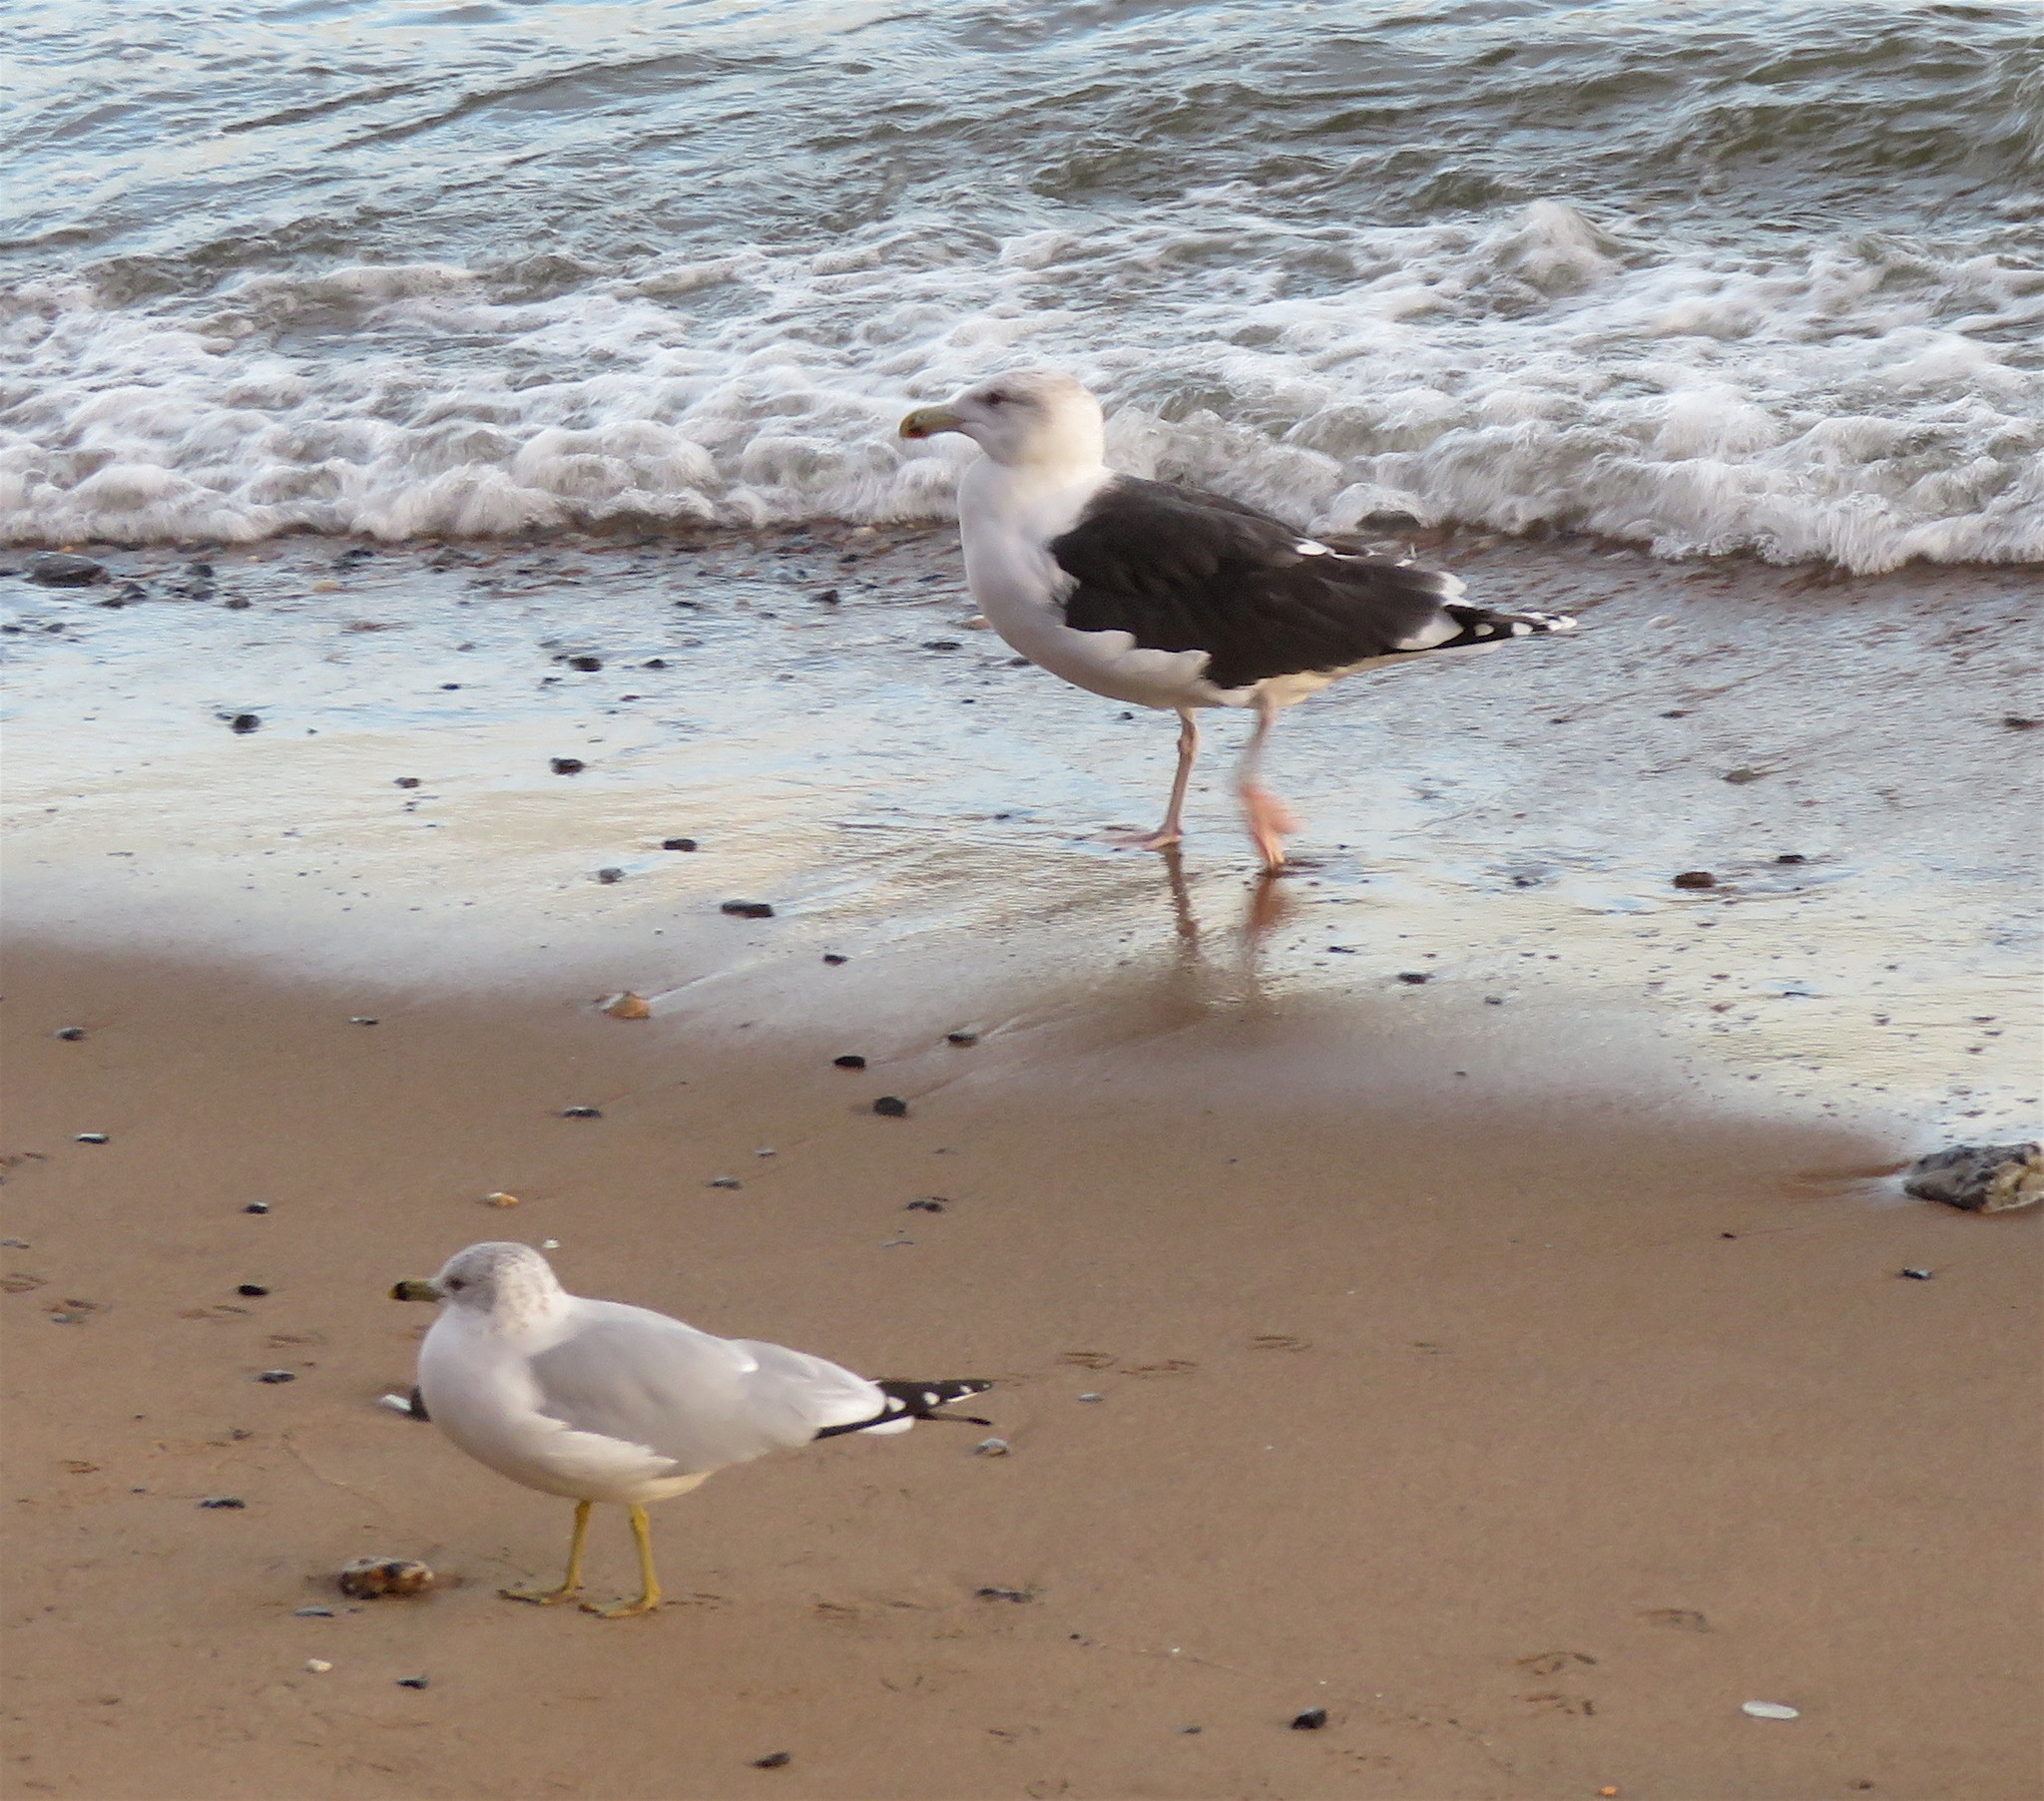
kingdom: Animalia
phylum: Chordata
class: Aves
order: Charadriiformes
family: Laridae
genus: Larus
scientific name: Larus delawarensis
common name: Ring-billed gull
